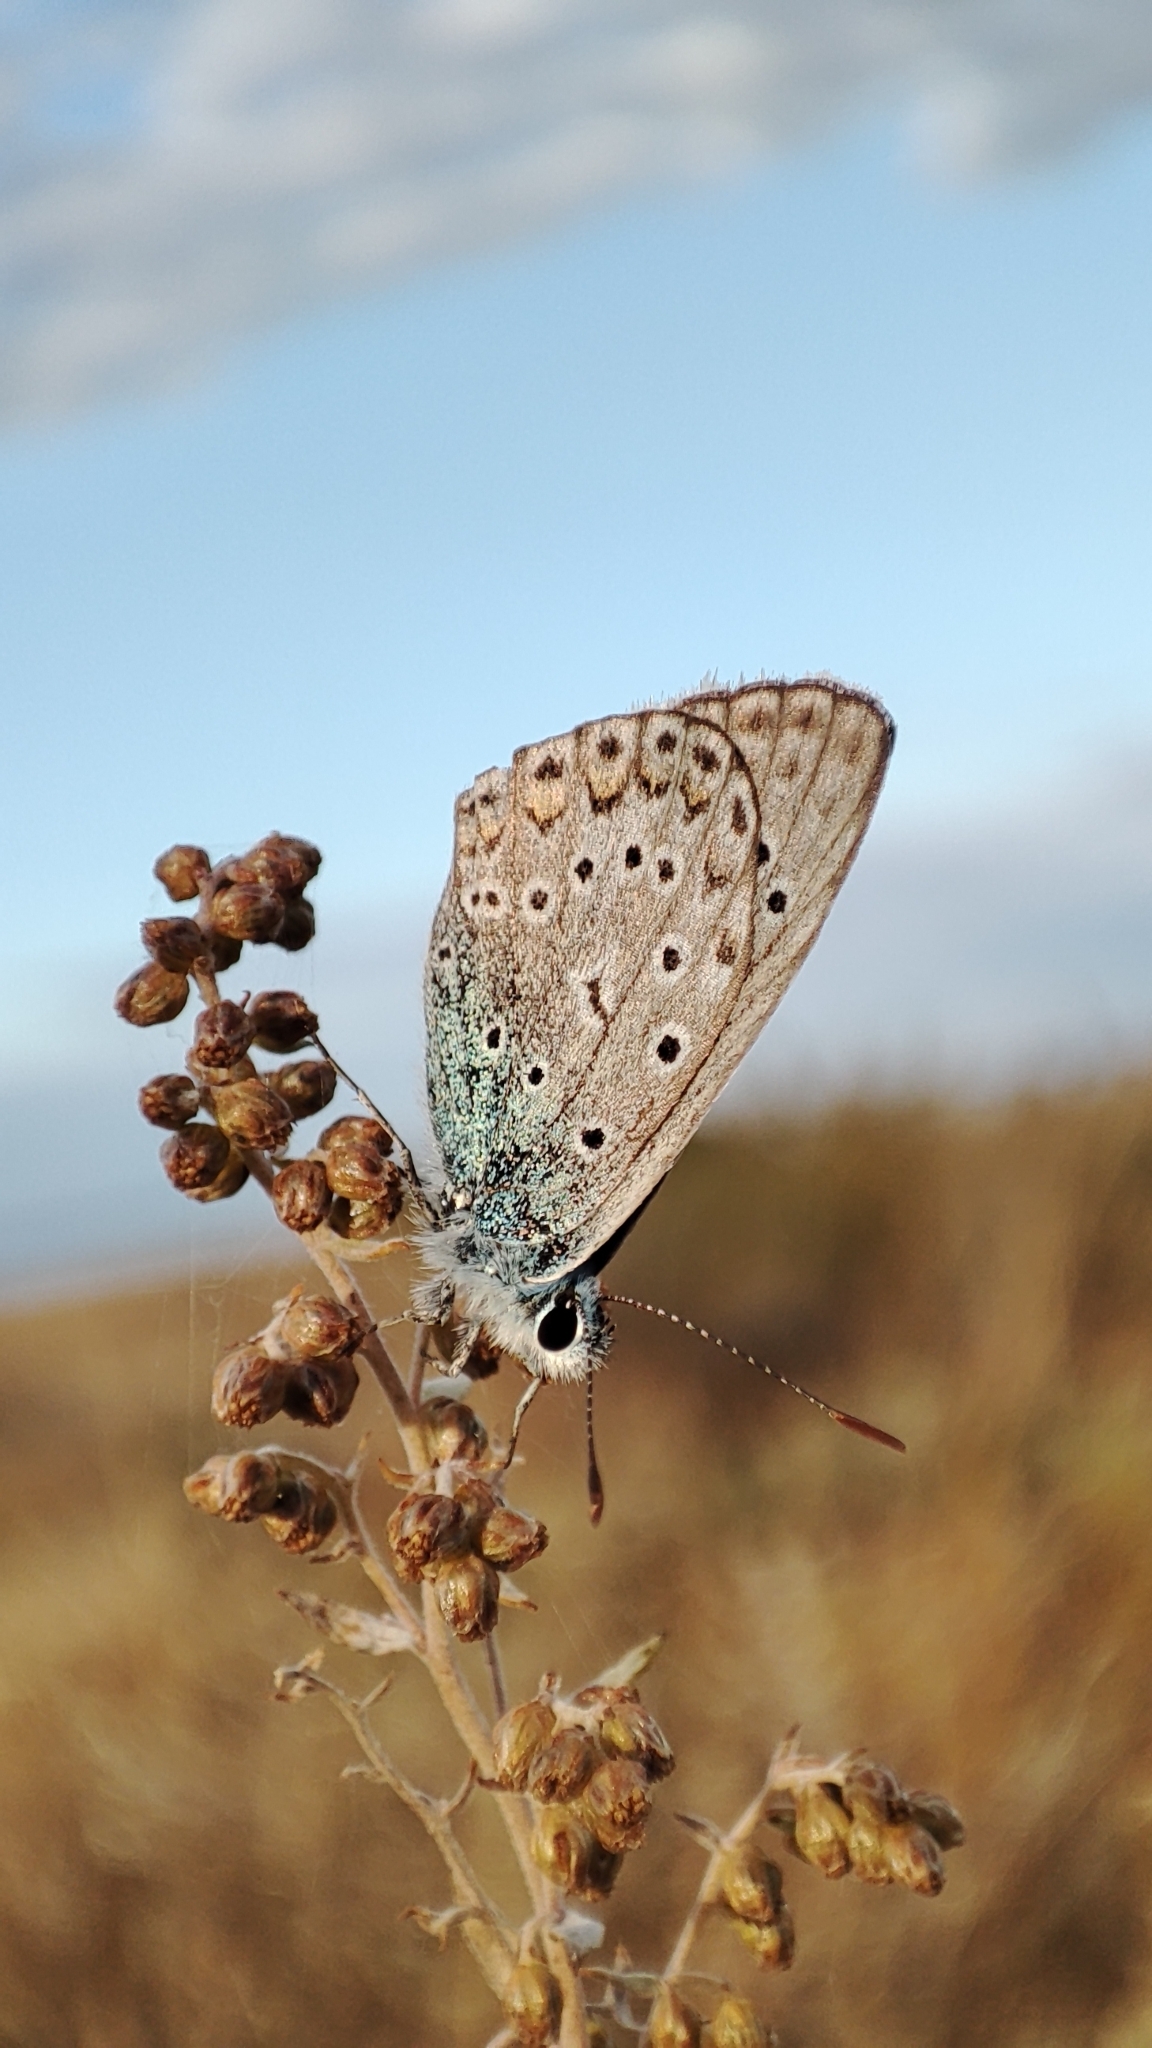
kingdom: Animalia
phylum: Arthropoda
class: Insecta
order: Lepidoptera
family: Lycaenidae
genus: Polyommatus
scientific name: Polyommatus icarus
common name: Common blue
